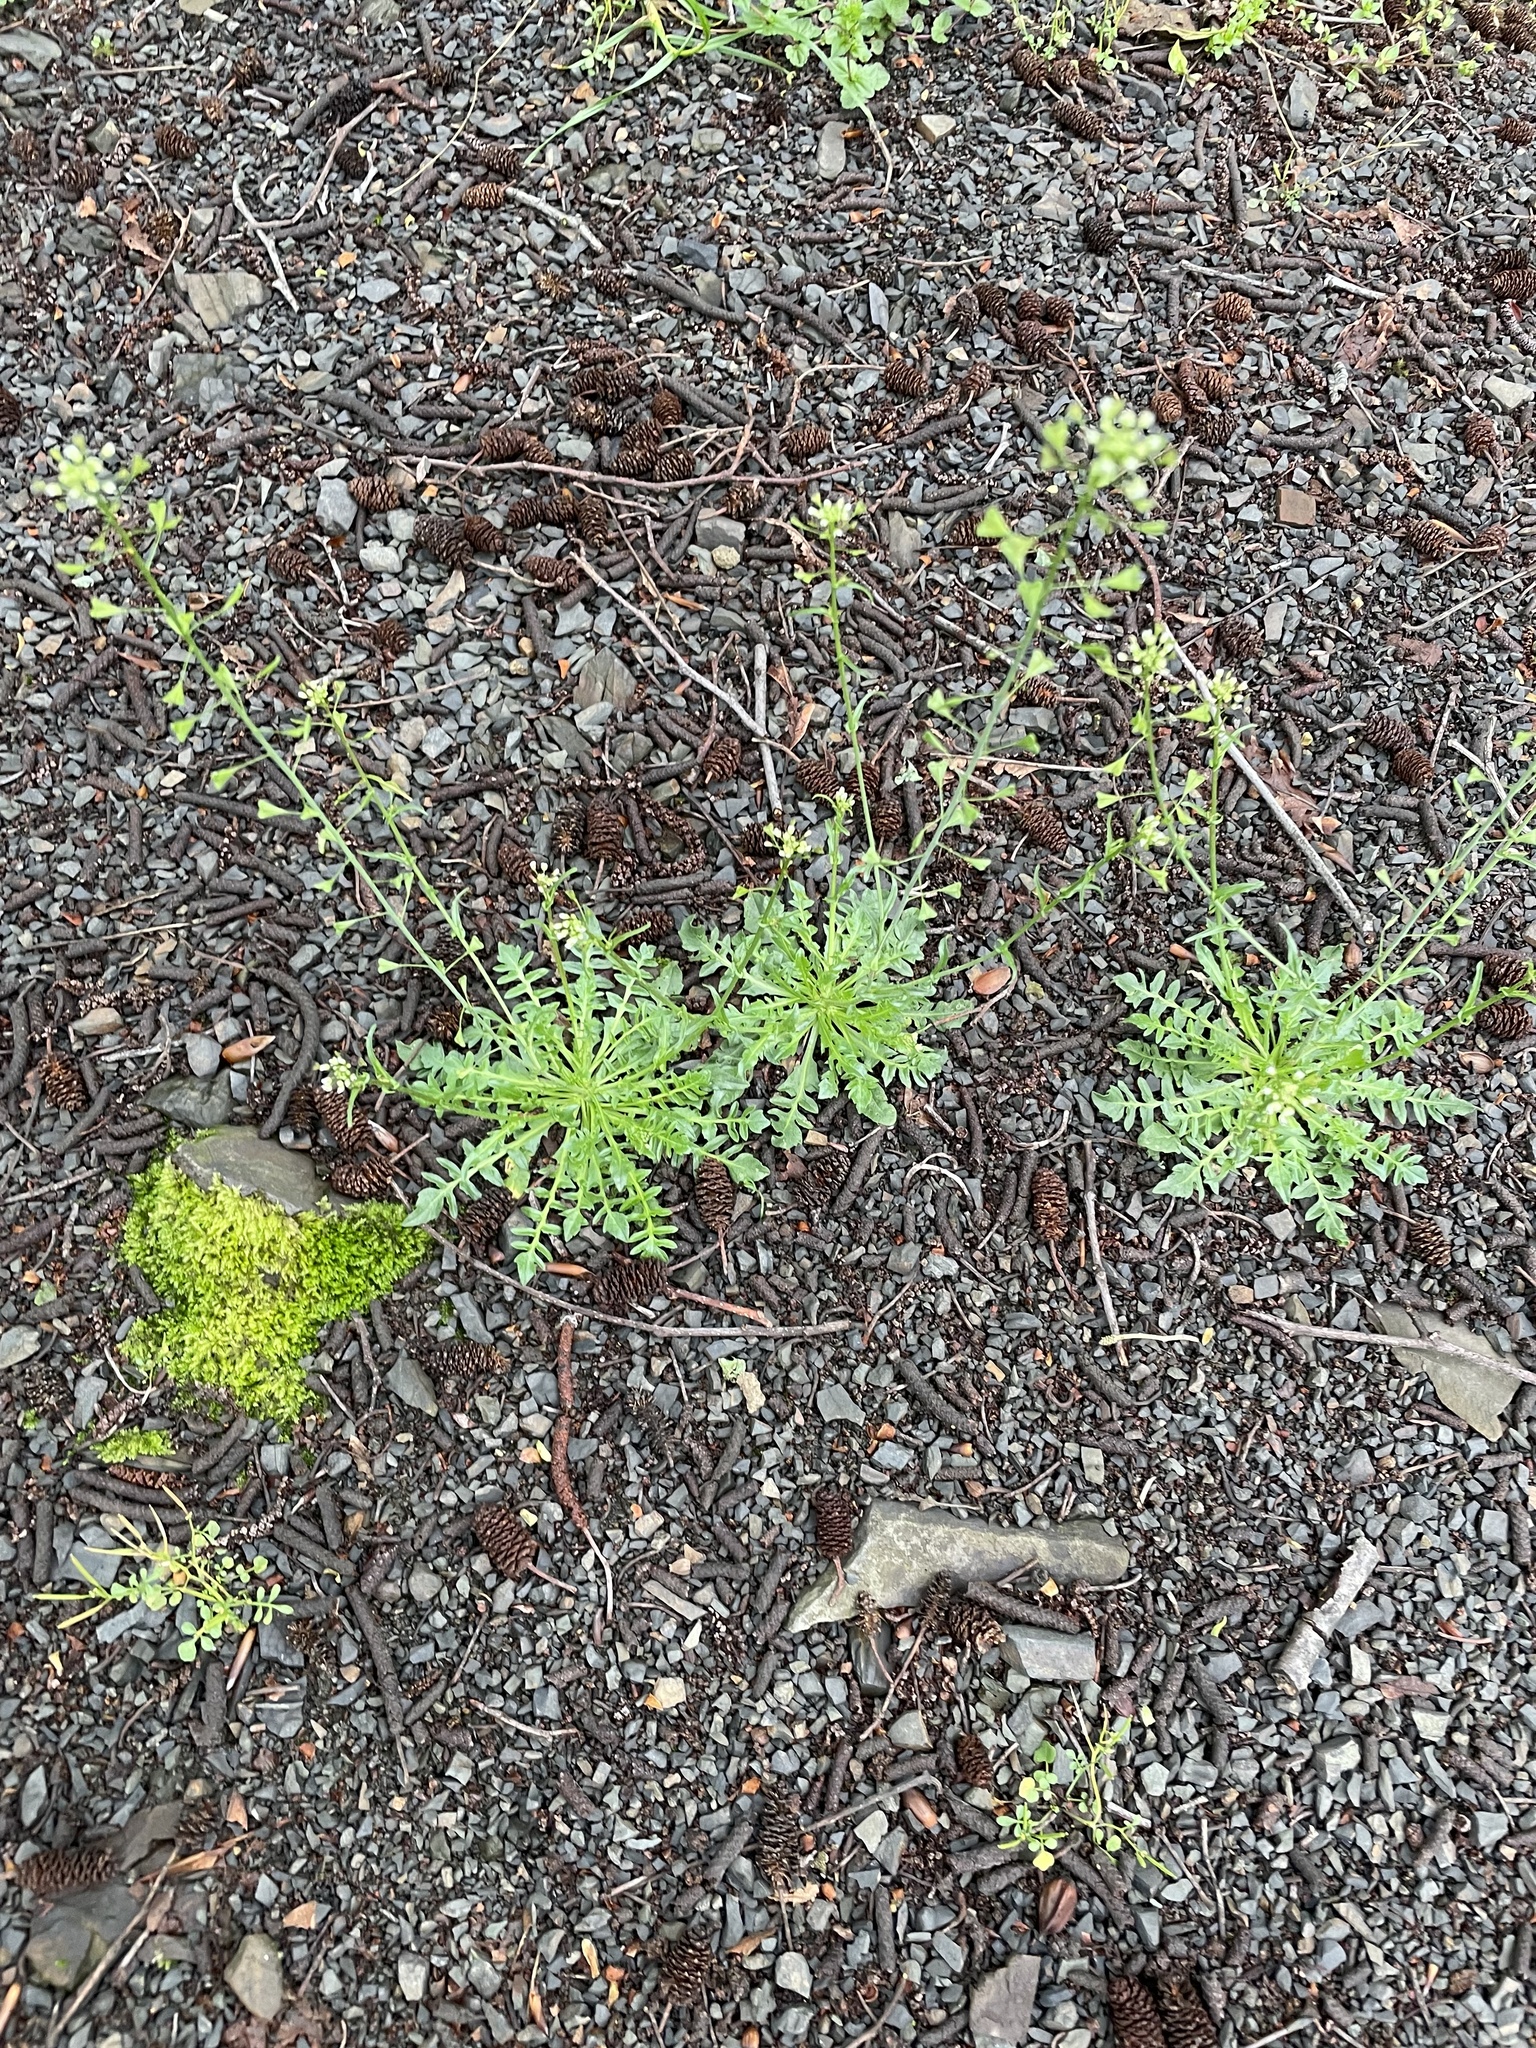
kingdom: Plantae
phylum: Tracheophyta
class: Magnoliopsida
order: Brassicales
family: Brassicaceae
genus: Capsella
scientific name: Capsella bursa-pastoris
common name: Shepherd's purse
